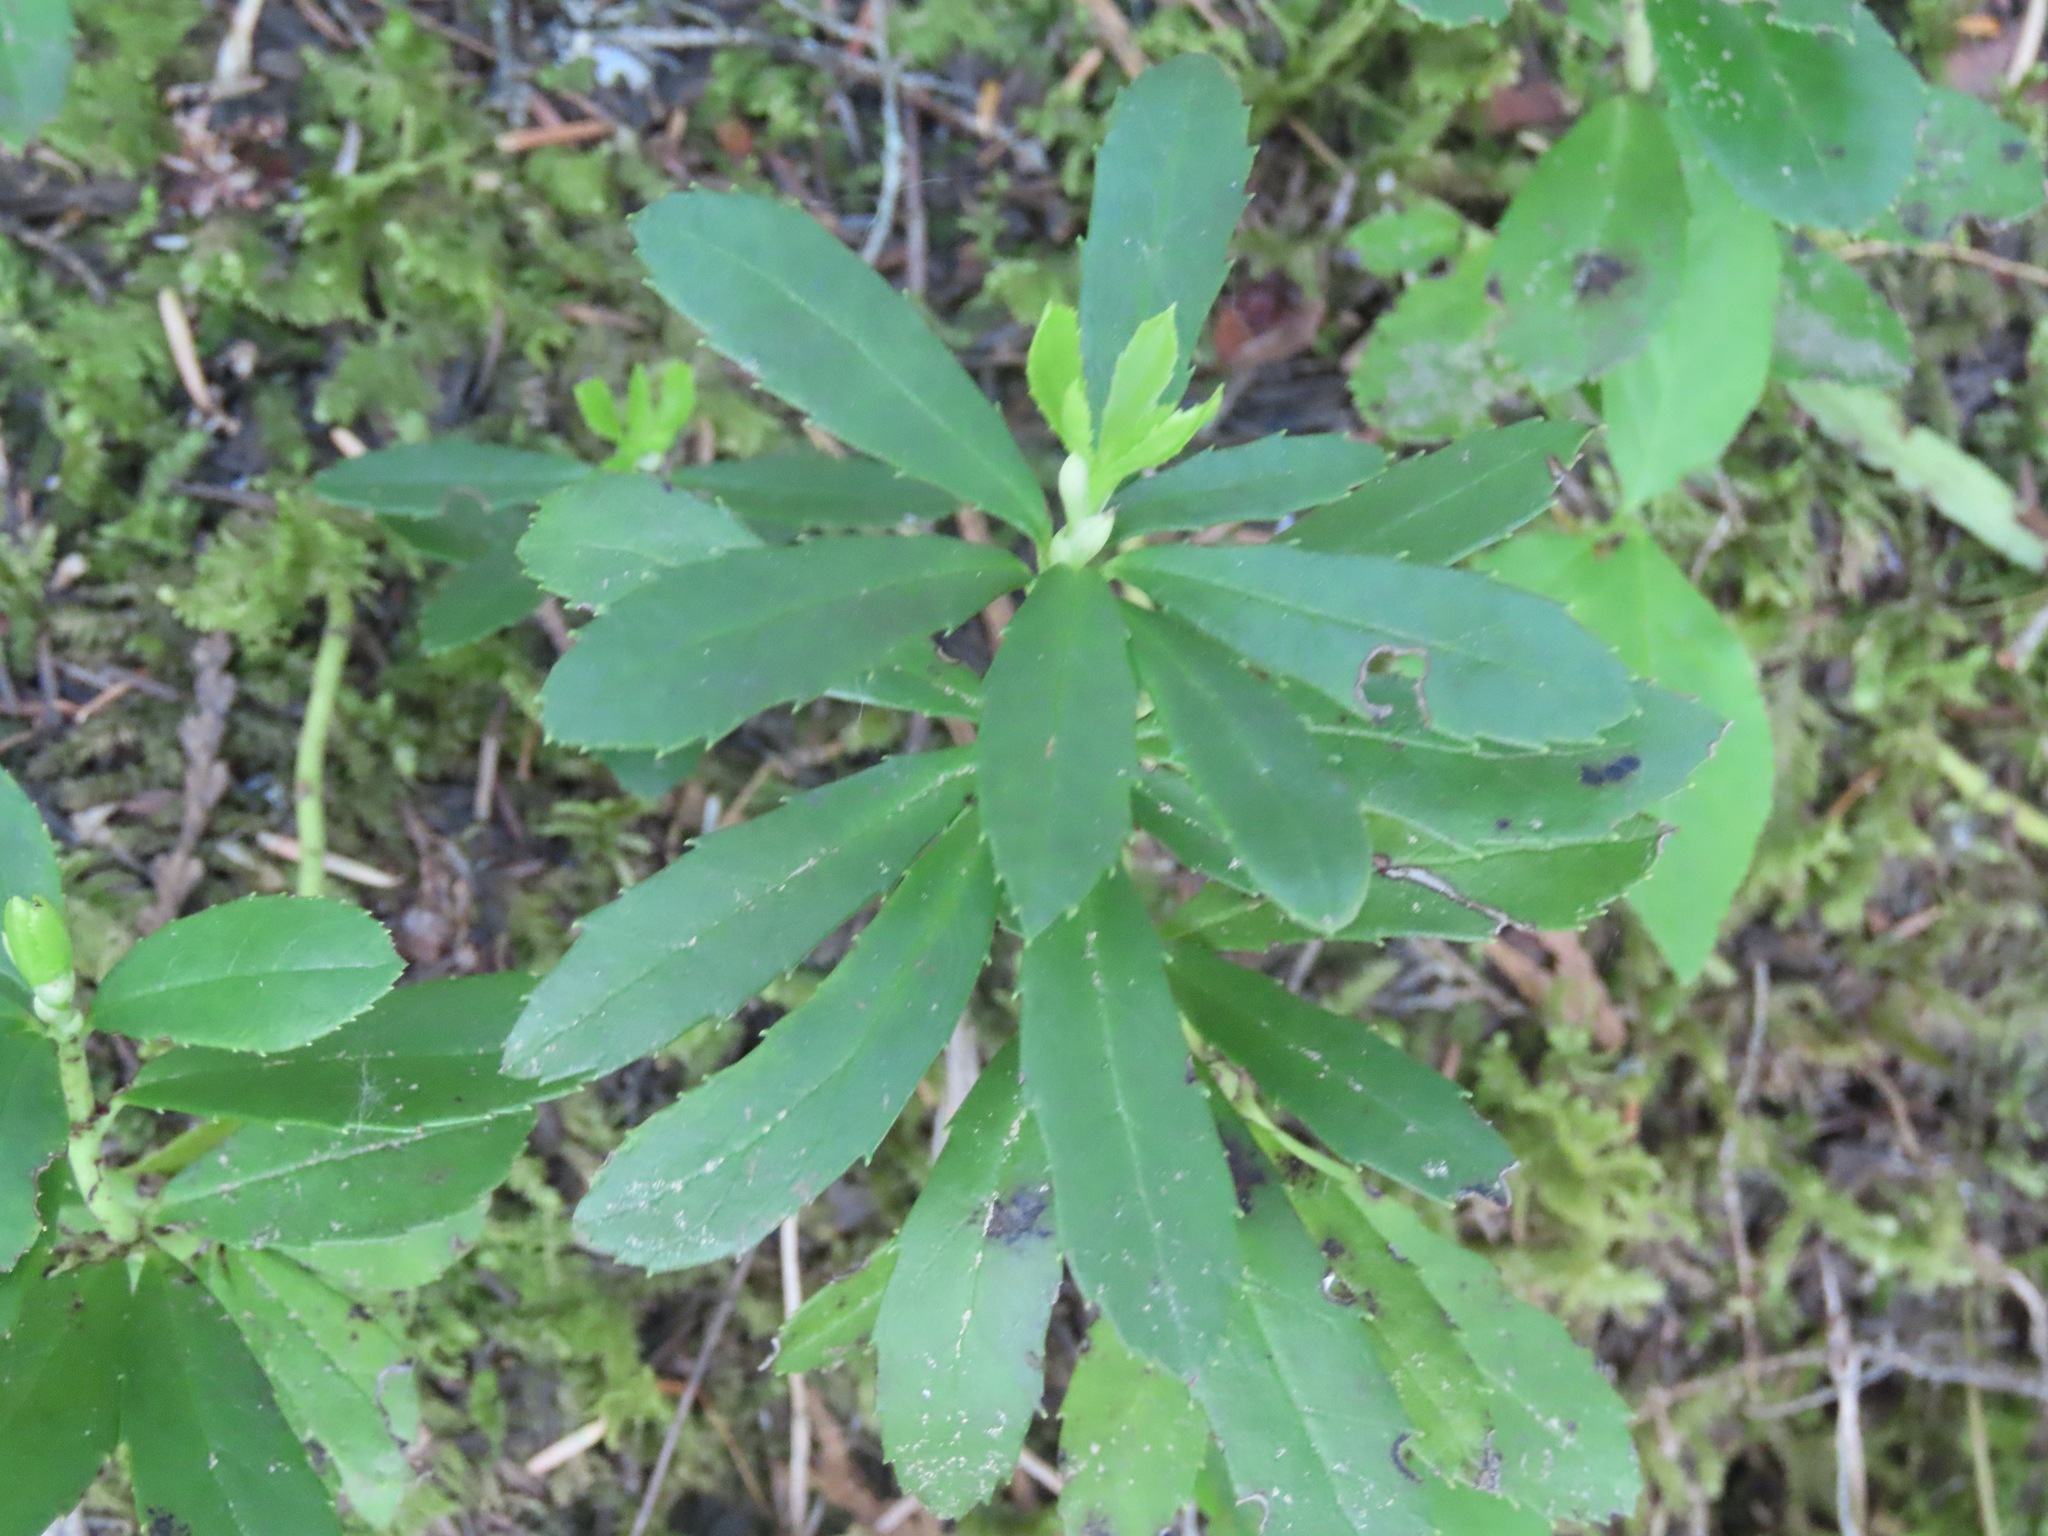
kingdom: Plantae
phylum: Tracheophyta
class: Magnoliopsida
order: Ericales
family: Ericaceae
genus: Chimaphila
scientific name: Chimaphila umbellata
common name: Pipsissewa
